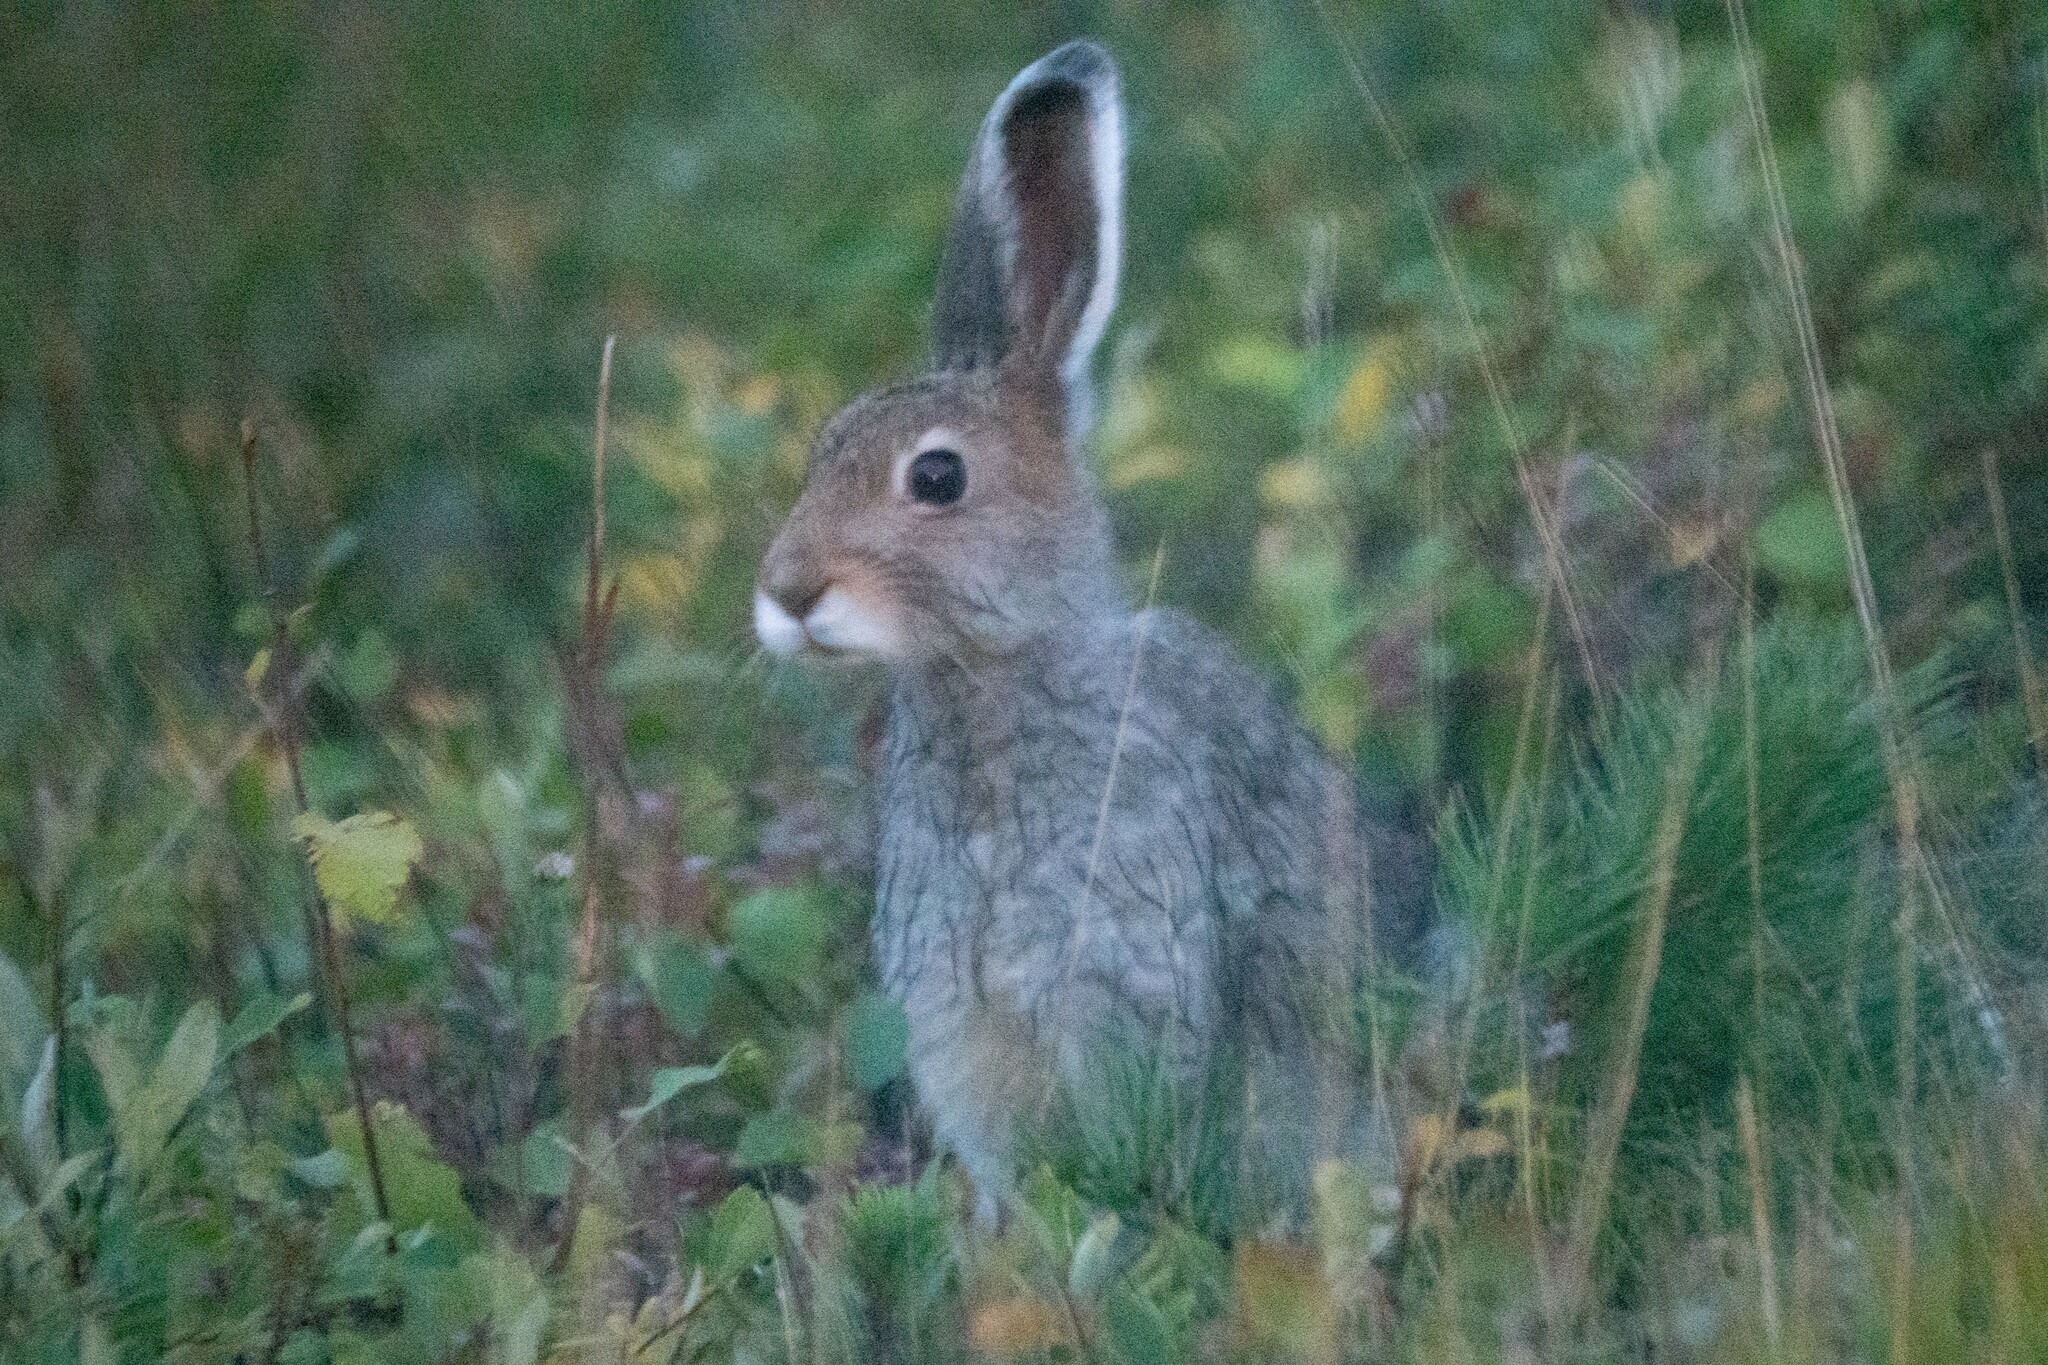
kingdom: Animalia
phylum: Chordata
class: Mammalia
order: Lagomorpha
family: Leporidae
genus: Lepus
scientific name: Lepus timidus
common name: Mountain hare
